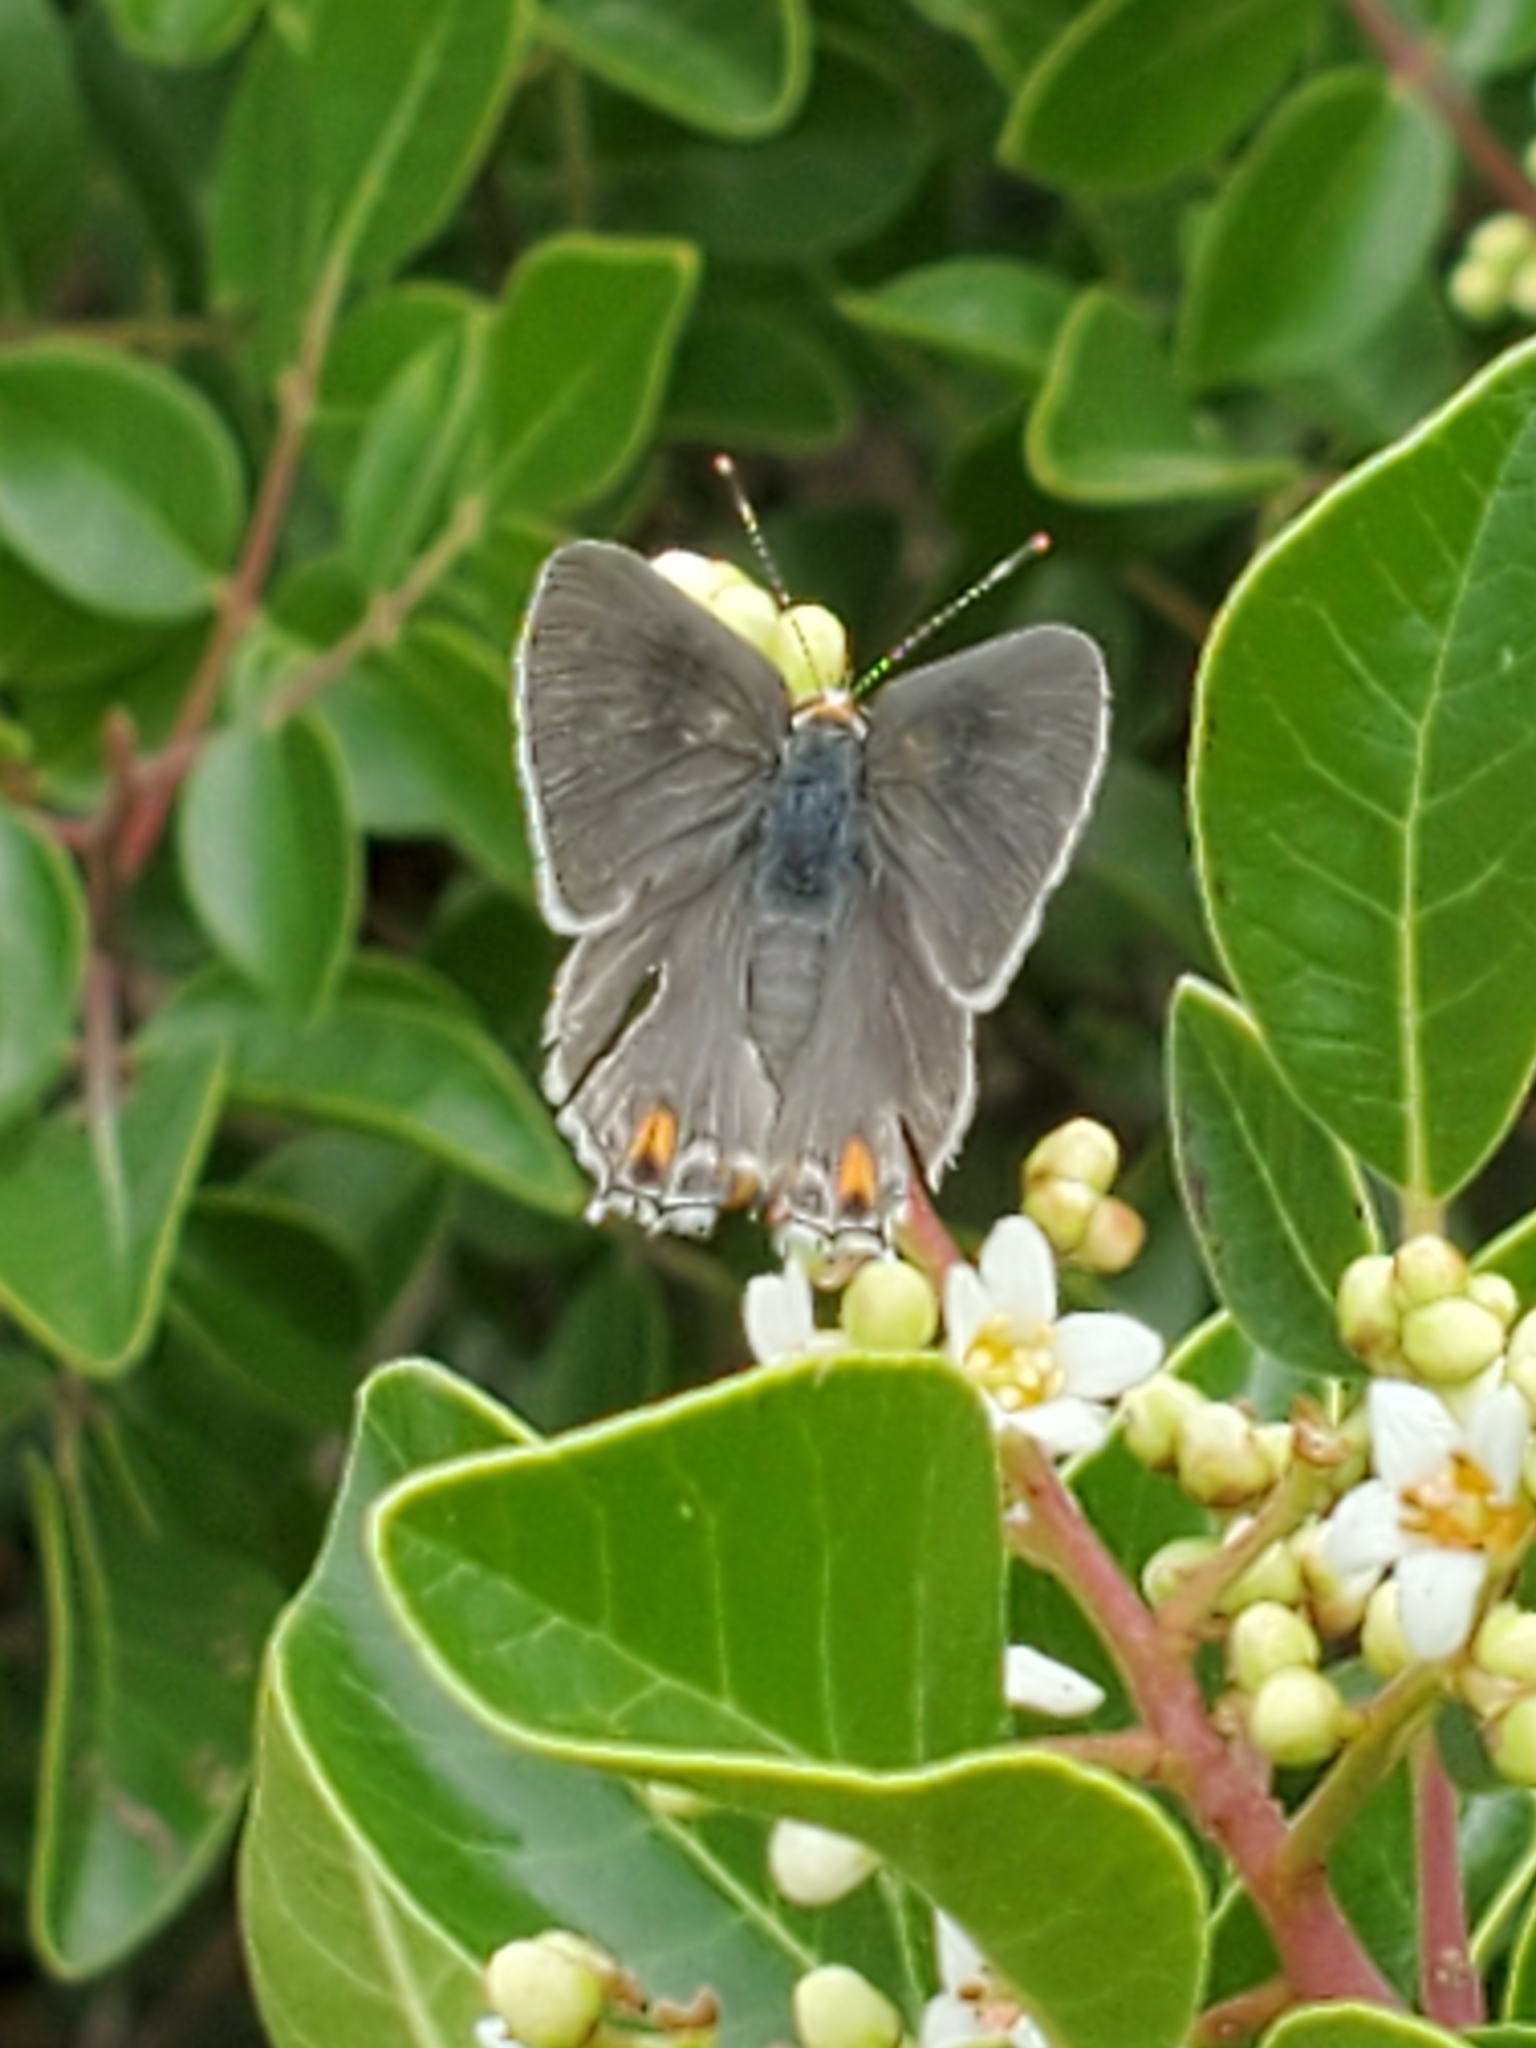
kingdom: Animalia
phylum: Arthropoda
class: Insecta
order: Lepidoptera
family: Lycaenidae
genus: Strymon
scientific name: Strymon melinus
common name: Gray hairstreak
